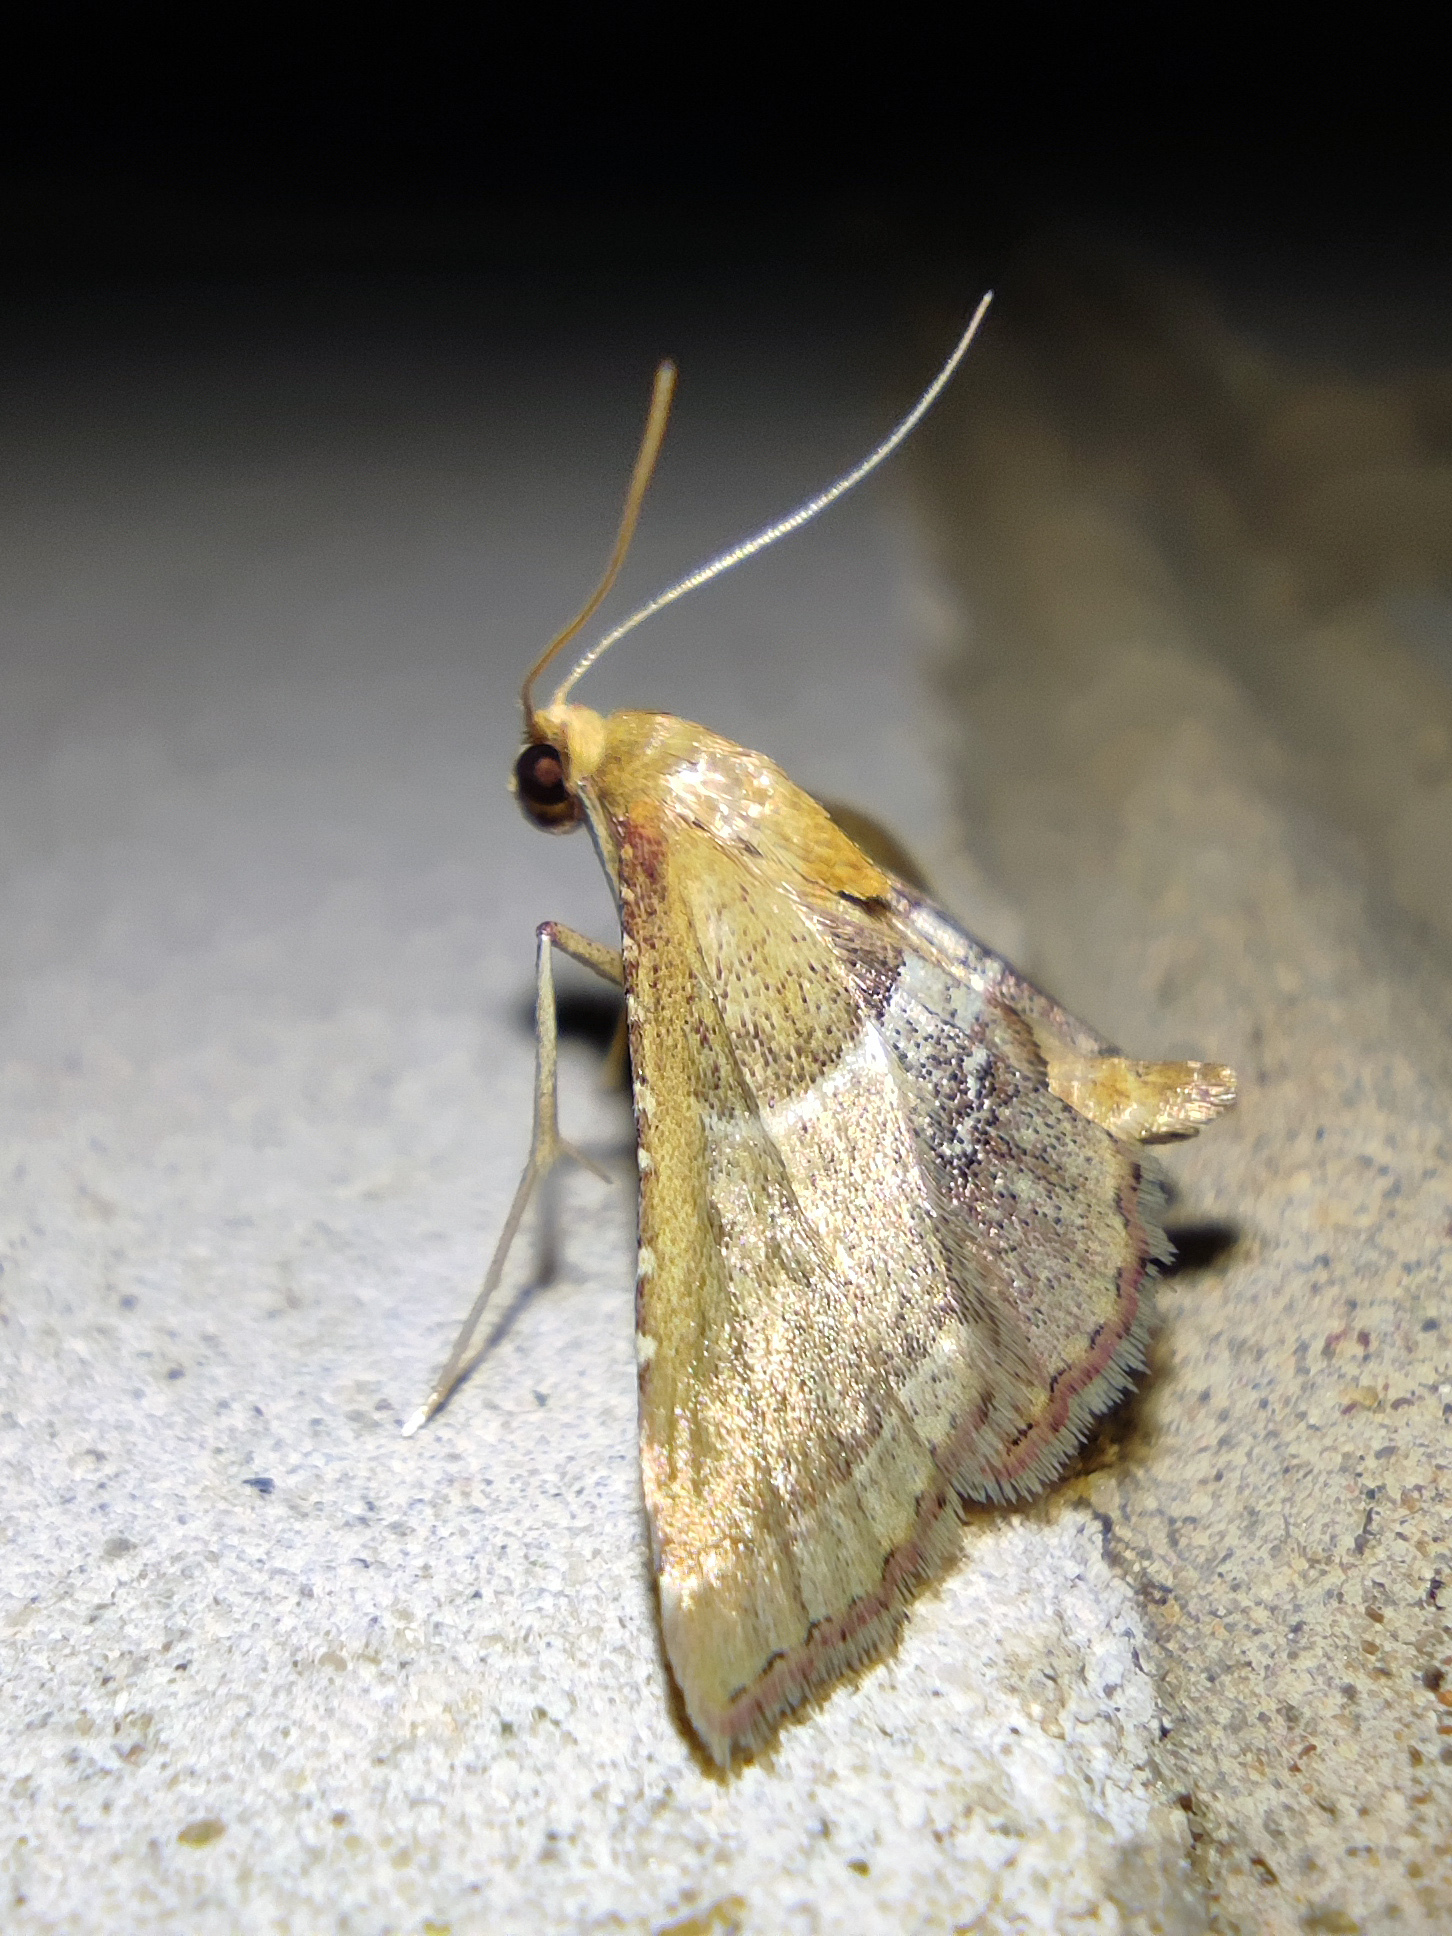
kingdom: Animalia
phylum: Arthropoda
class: Insecta
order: Lepidoptera
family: Pyralidae
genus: Endotricha
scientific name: Endotricha flammealis
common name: Rosy tabby
